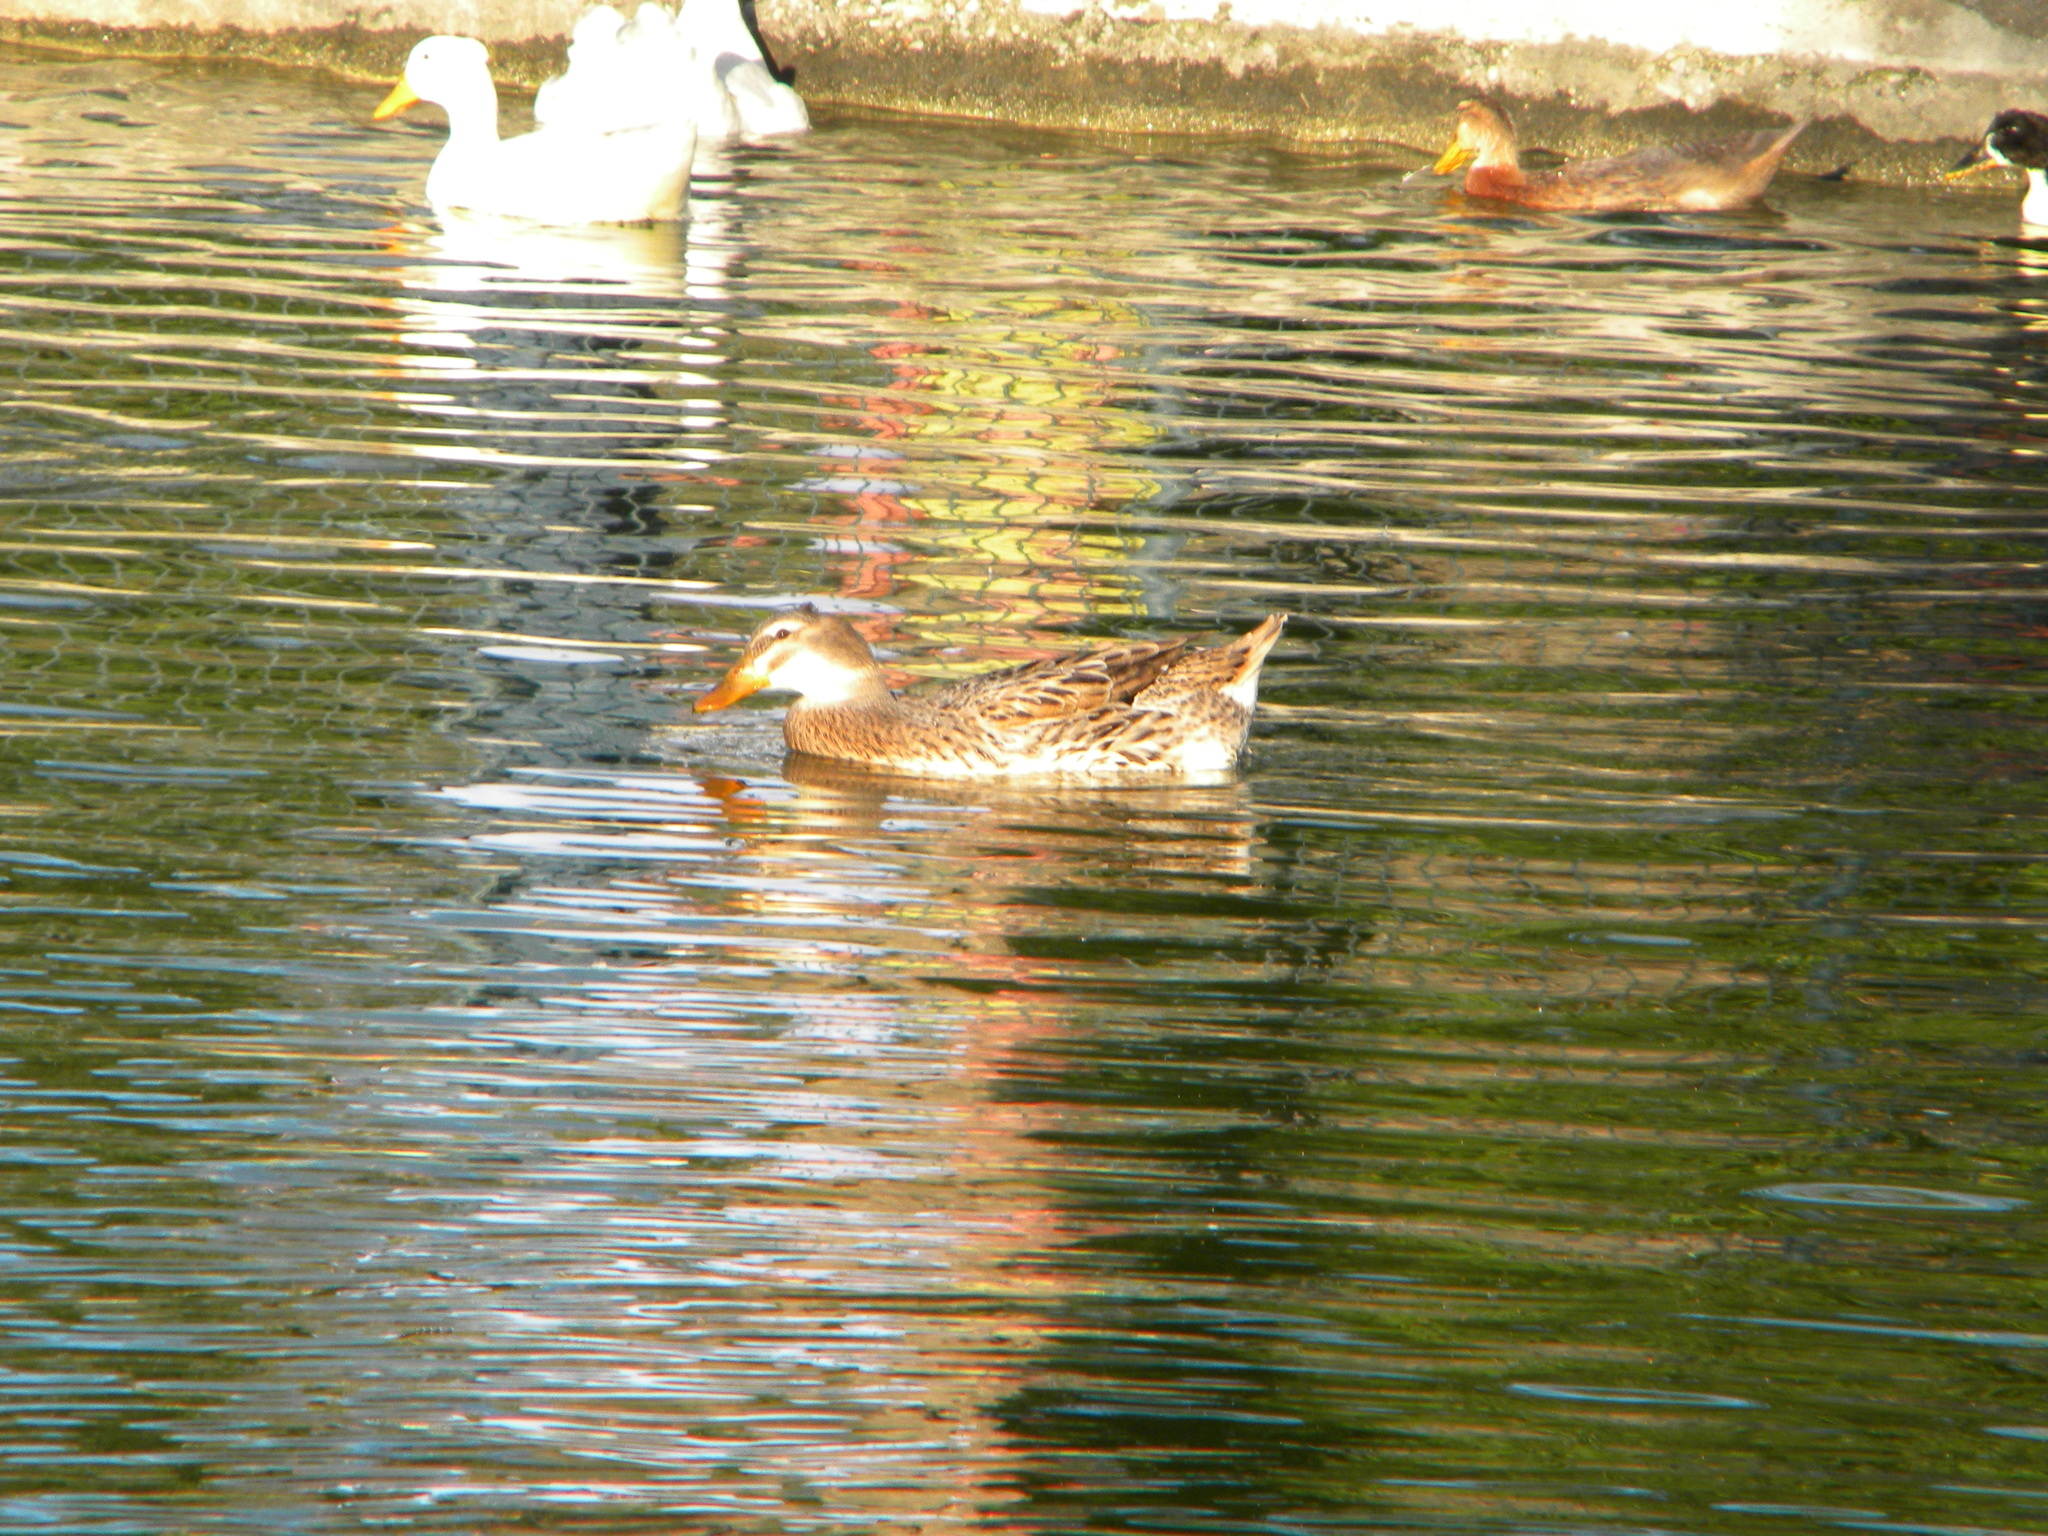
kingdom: Animalia
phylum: Chordata
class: Aves
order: Anseriformes
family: Anatidae
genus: Anas
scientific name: Anas platyrhynchos
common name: Mallard
